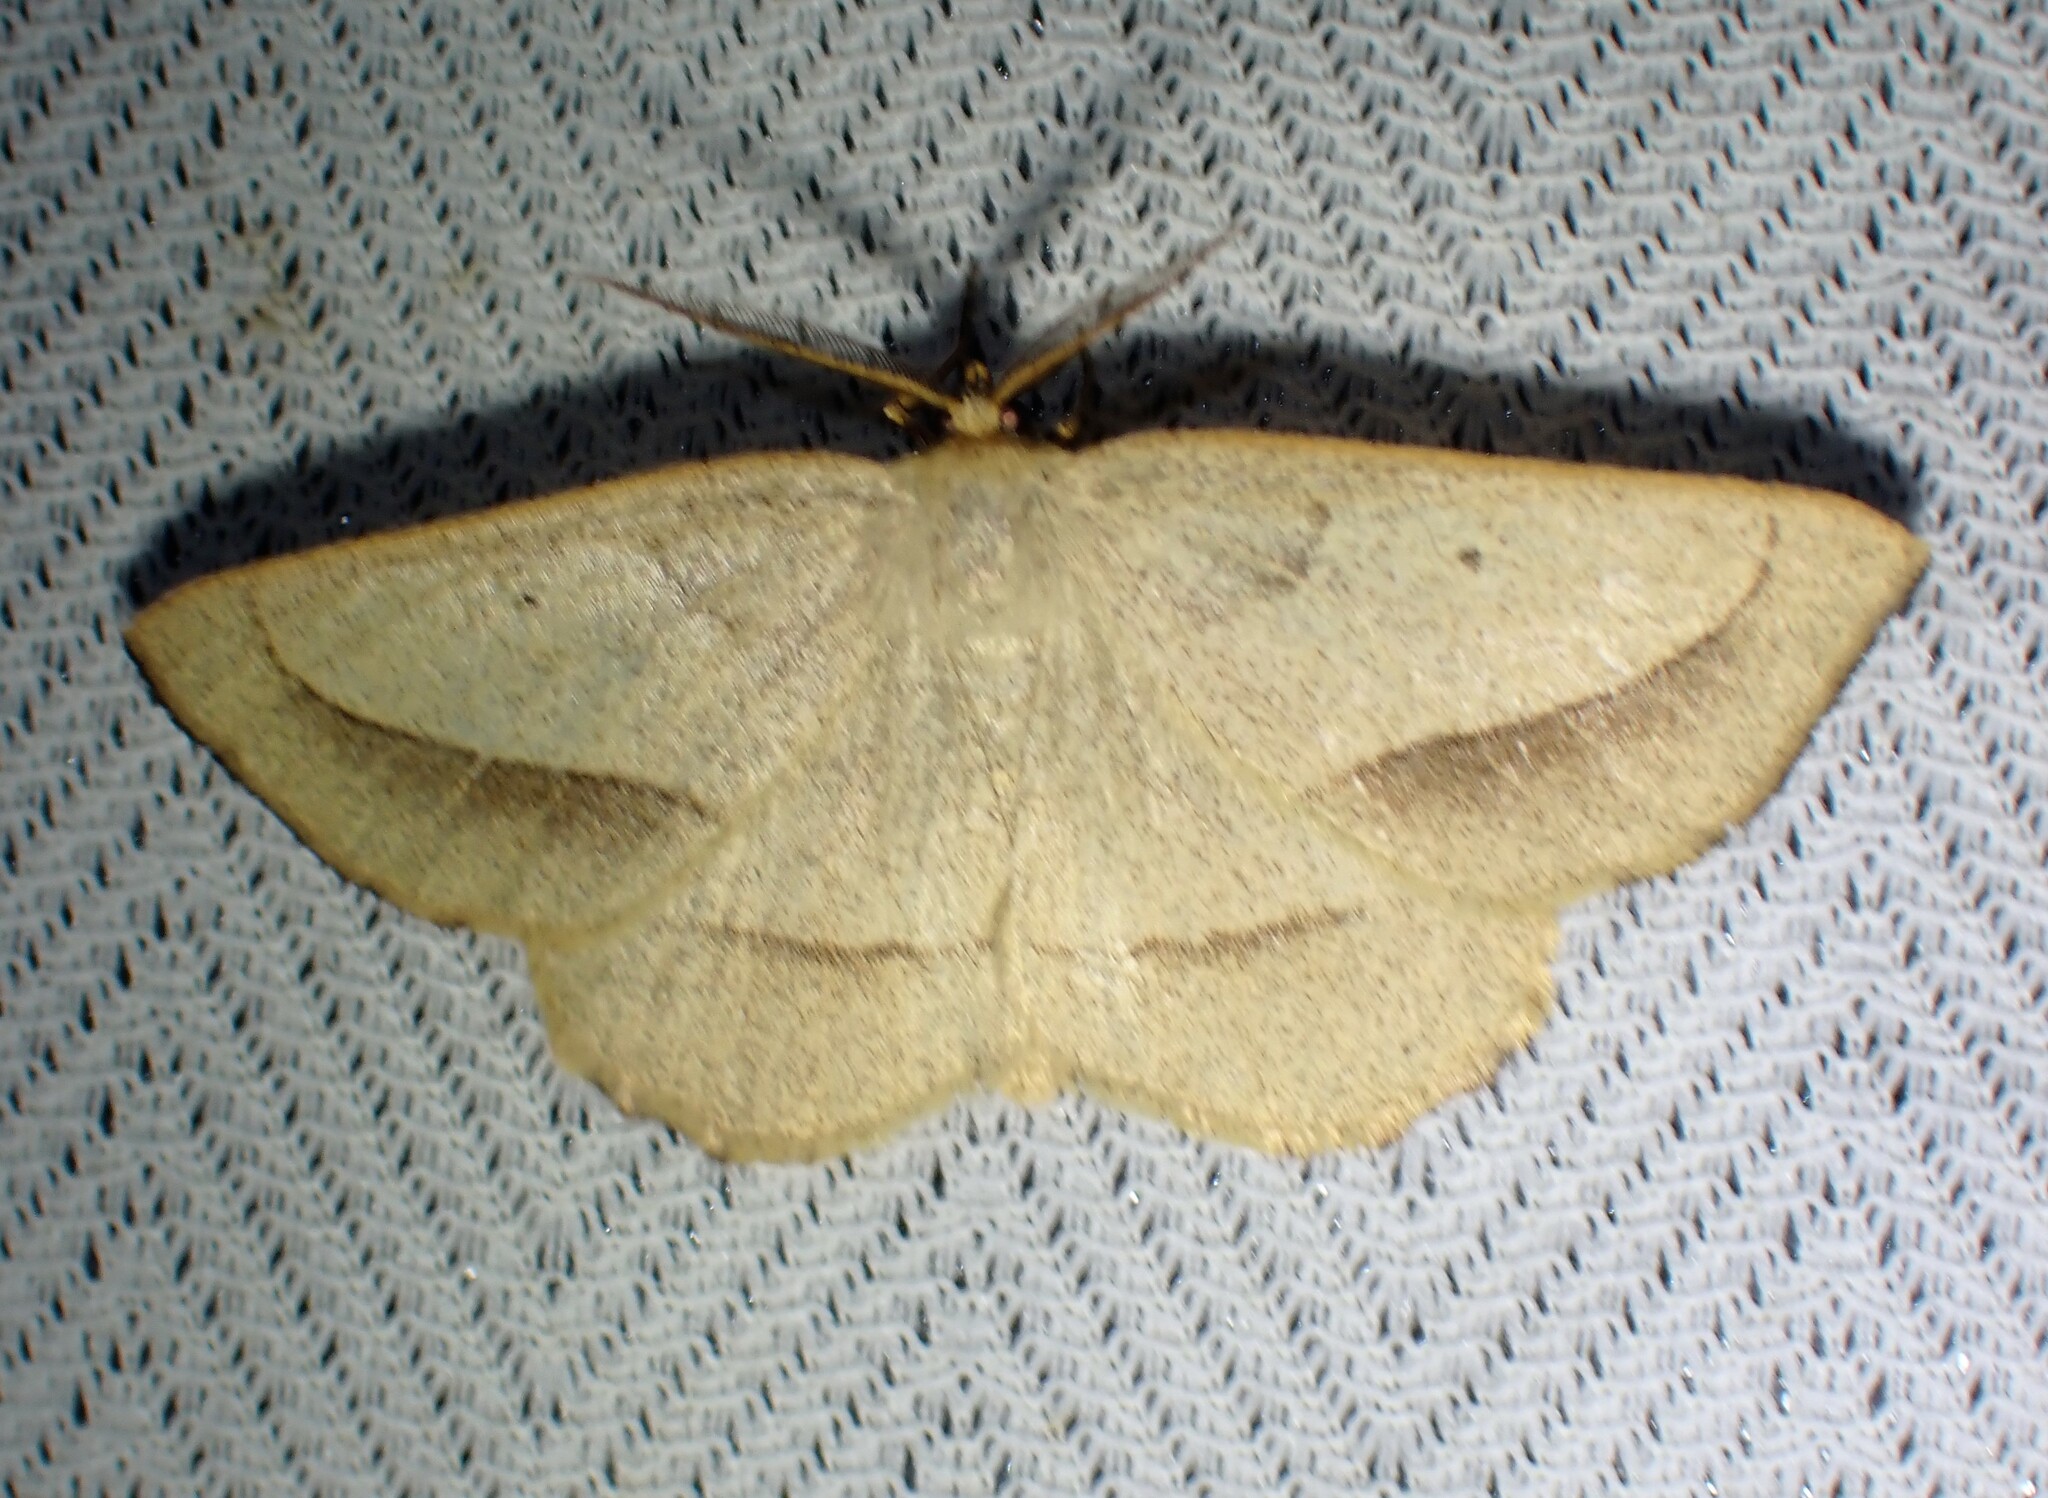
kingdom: Animalia
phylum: Arthropoda
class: Insecta
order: Lepidoptera
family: Geometridae
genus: Euchlaena
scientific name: Euchlaena irraria
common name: Least-marked euchlaena
